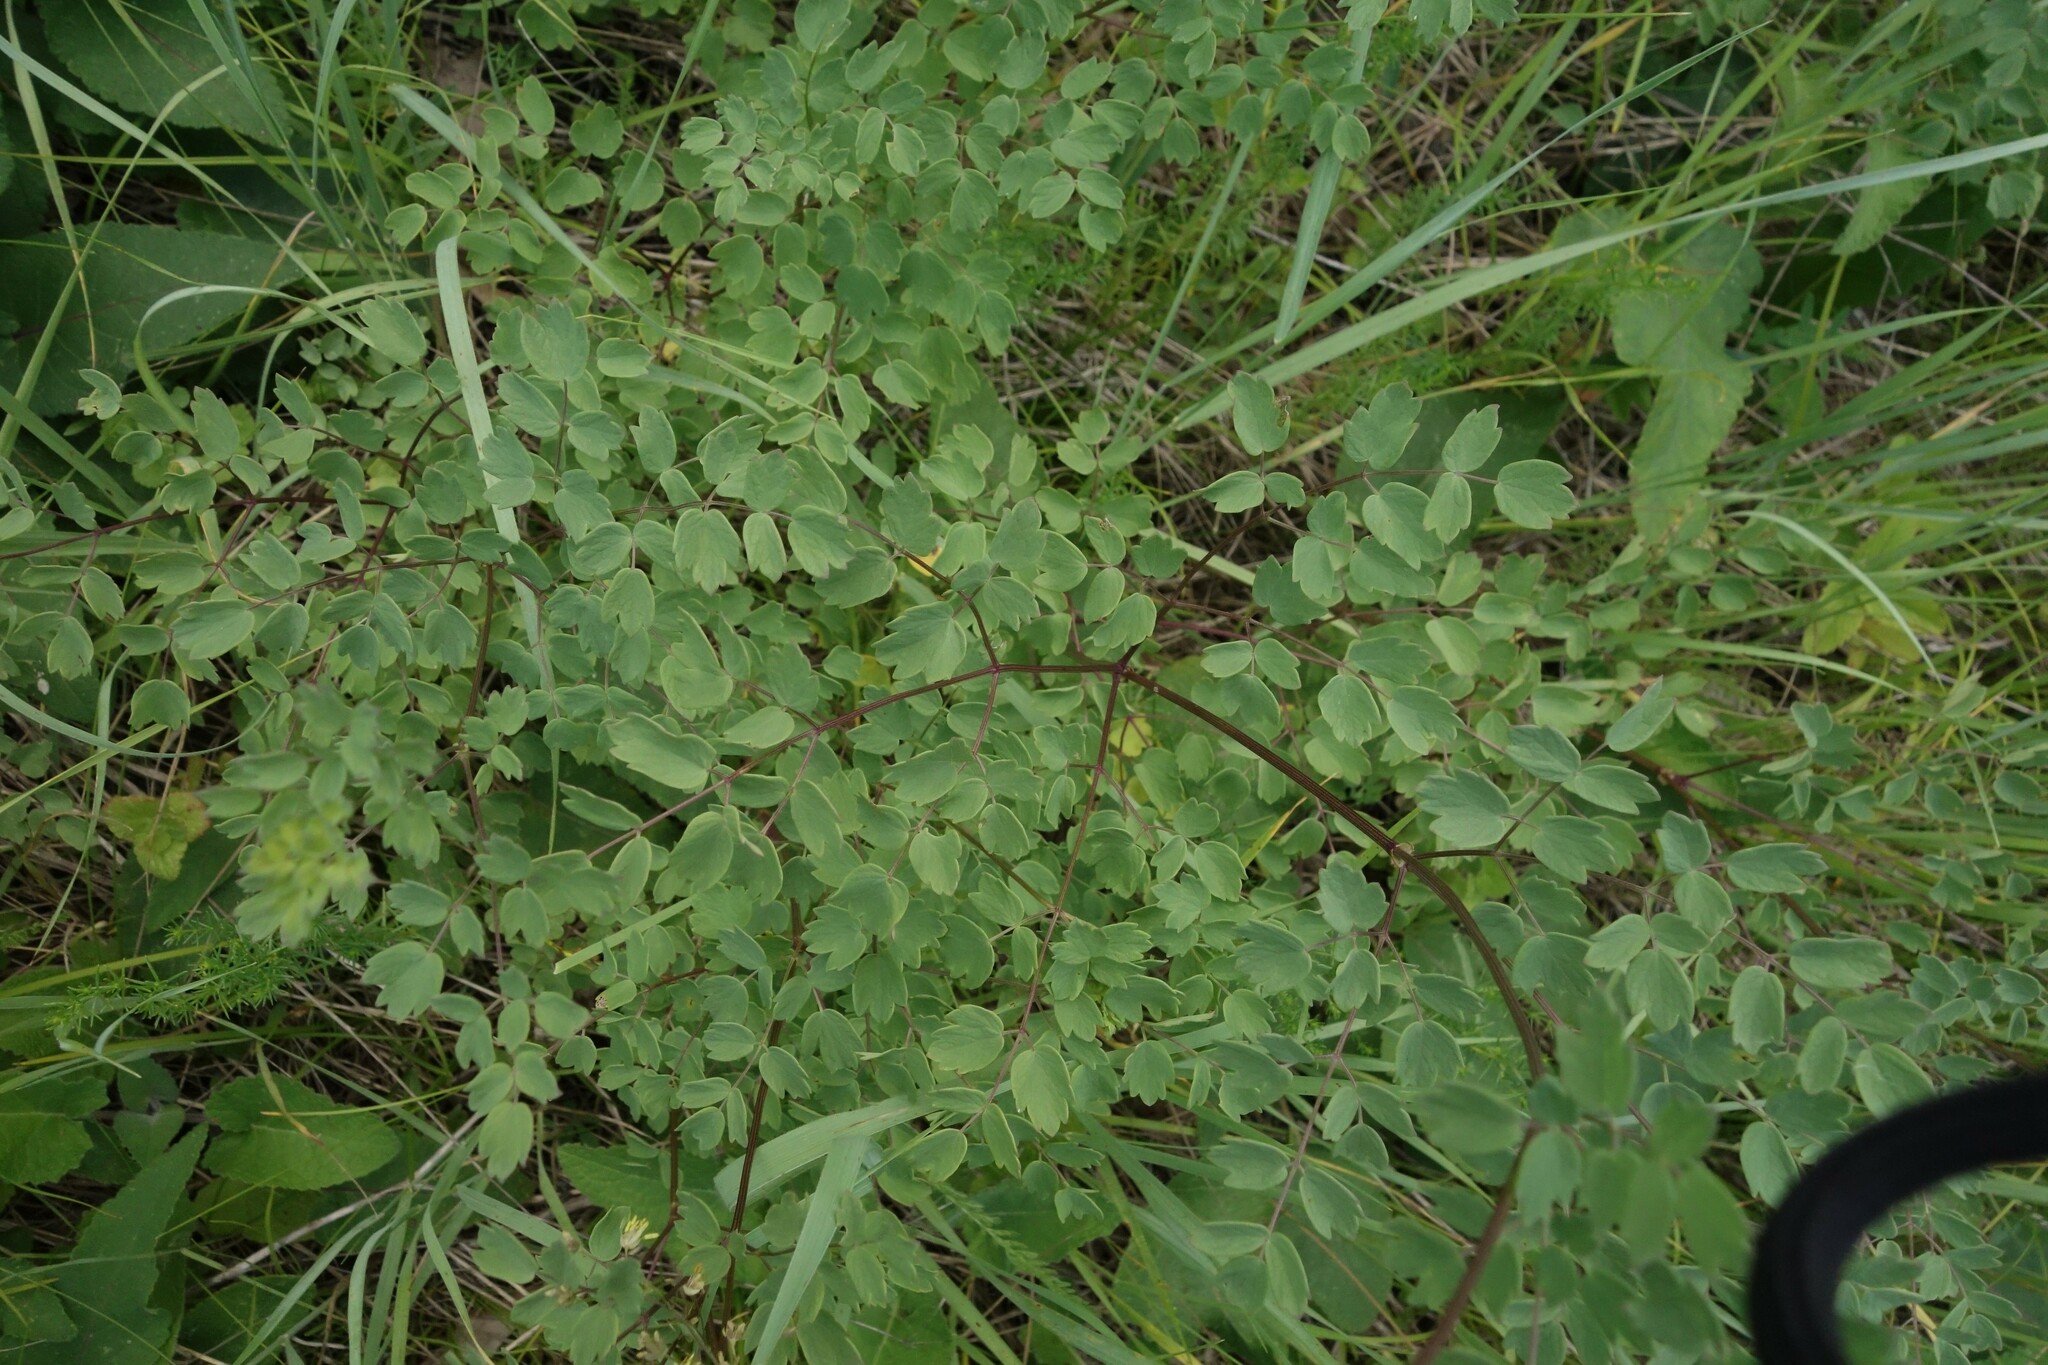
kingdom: Plantae
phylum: Tracheophyta
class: Magnoliopsida
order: Ranunculales
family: Ranunculaceae
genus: Thalictrum
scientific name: Thalictrum minus
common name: Lesser meadow-rue
